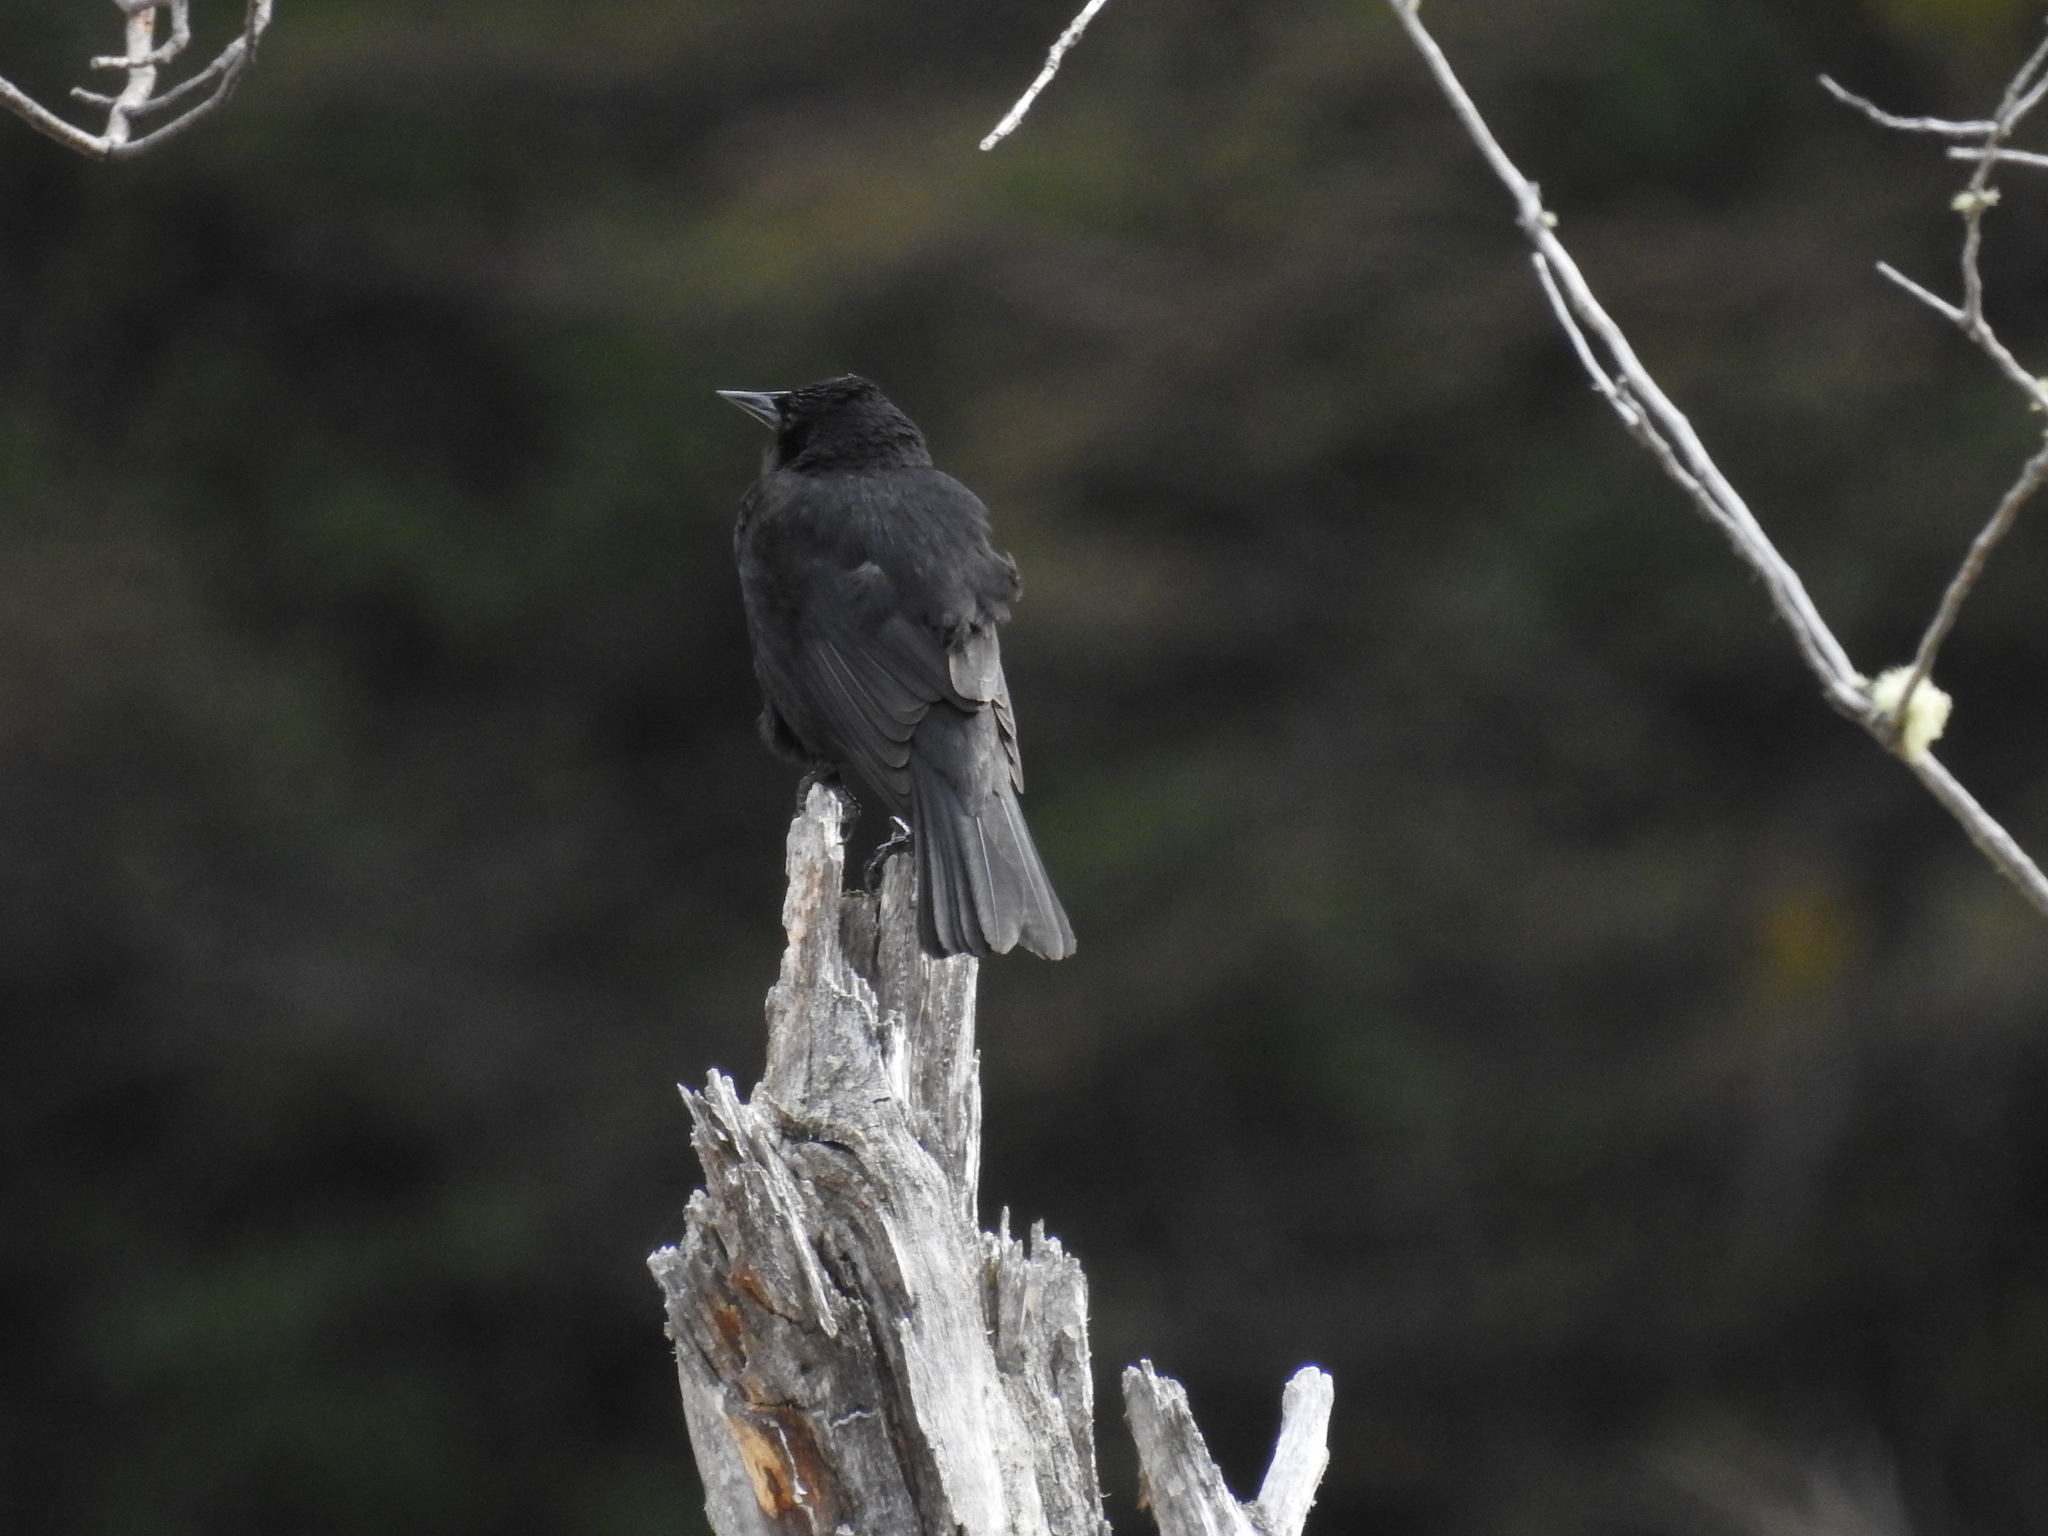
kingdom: Animalia
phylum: Chordata
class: Aves
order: Passeriformes
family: Icteridae
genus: Curaeus
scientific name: Curaeus curaeus
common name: Austral blackbird
